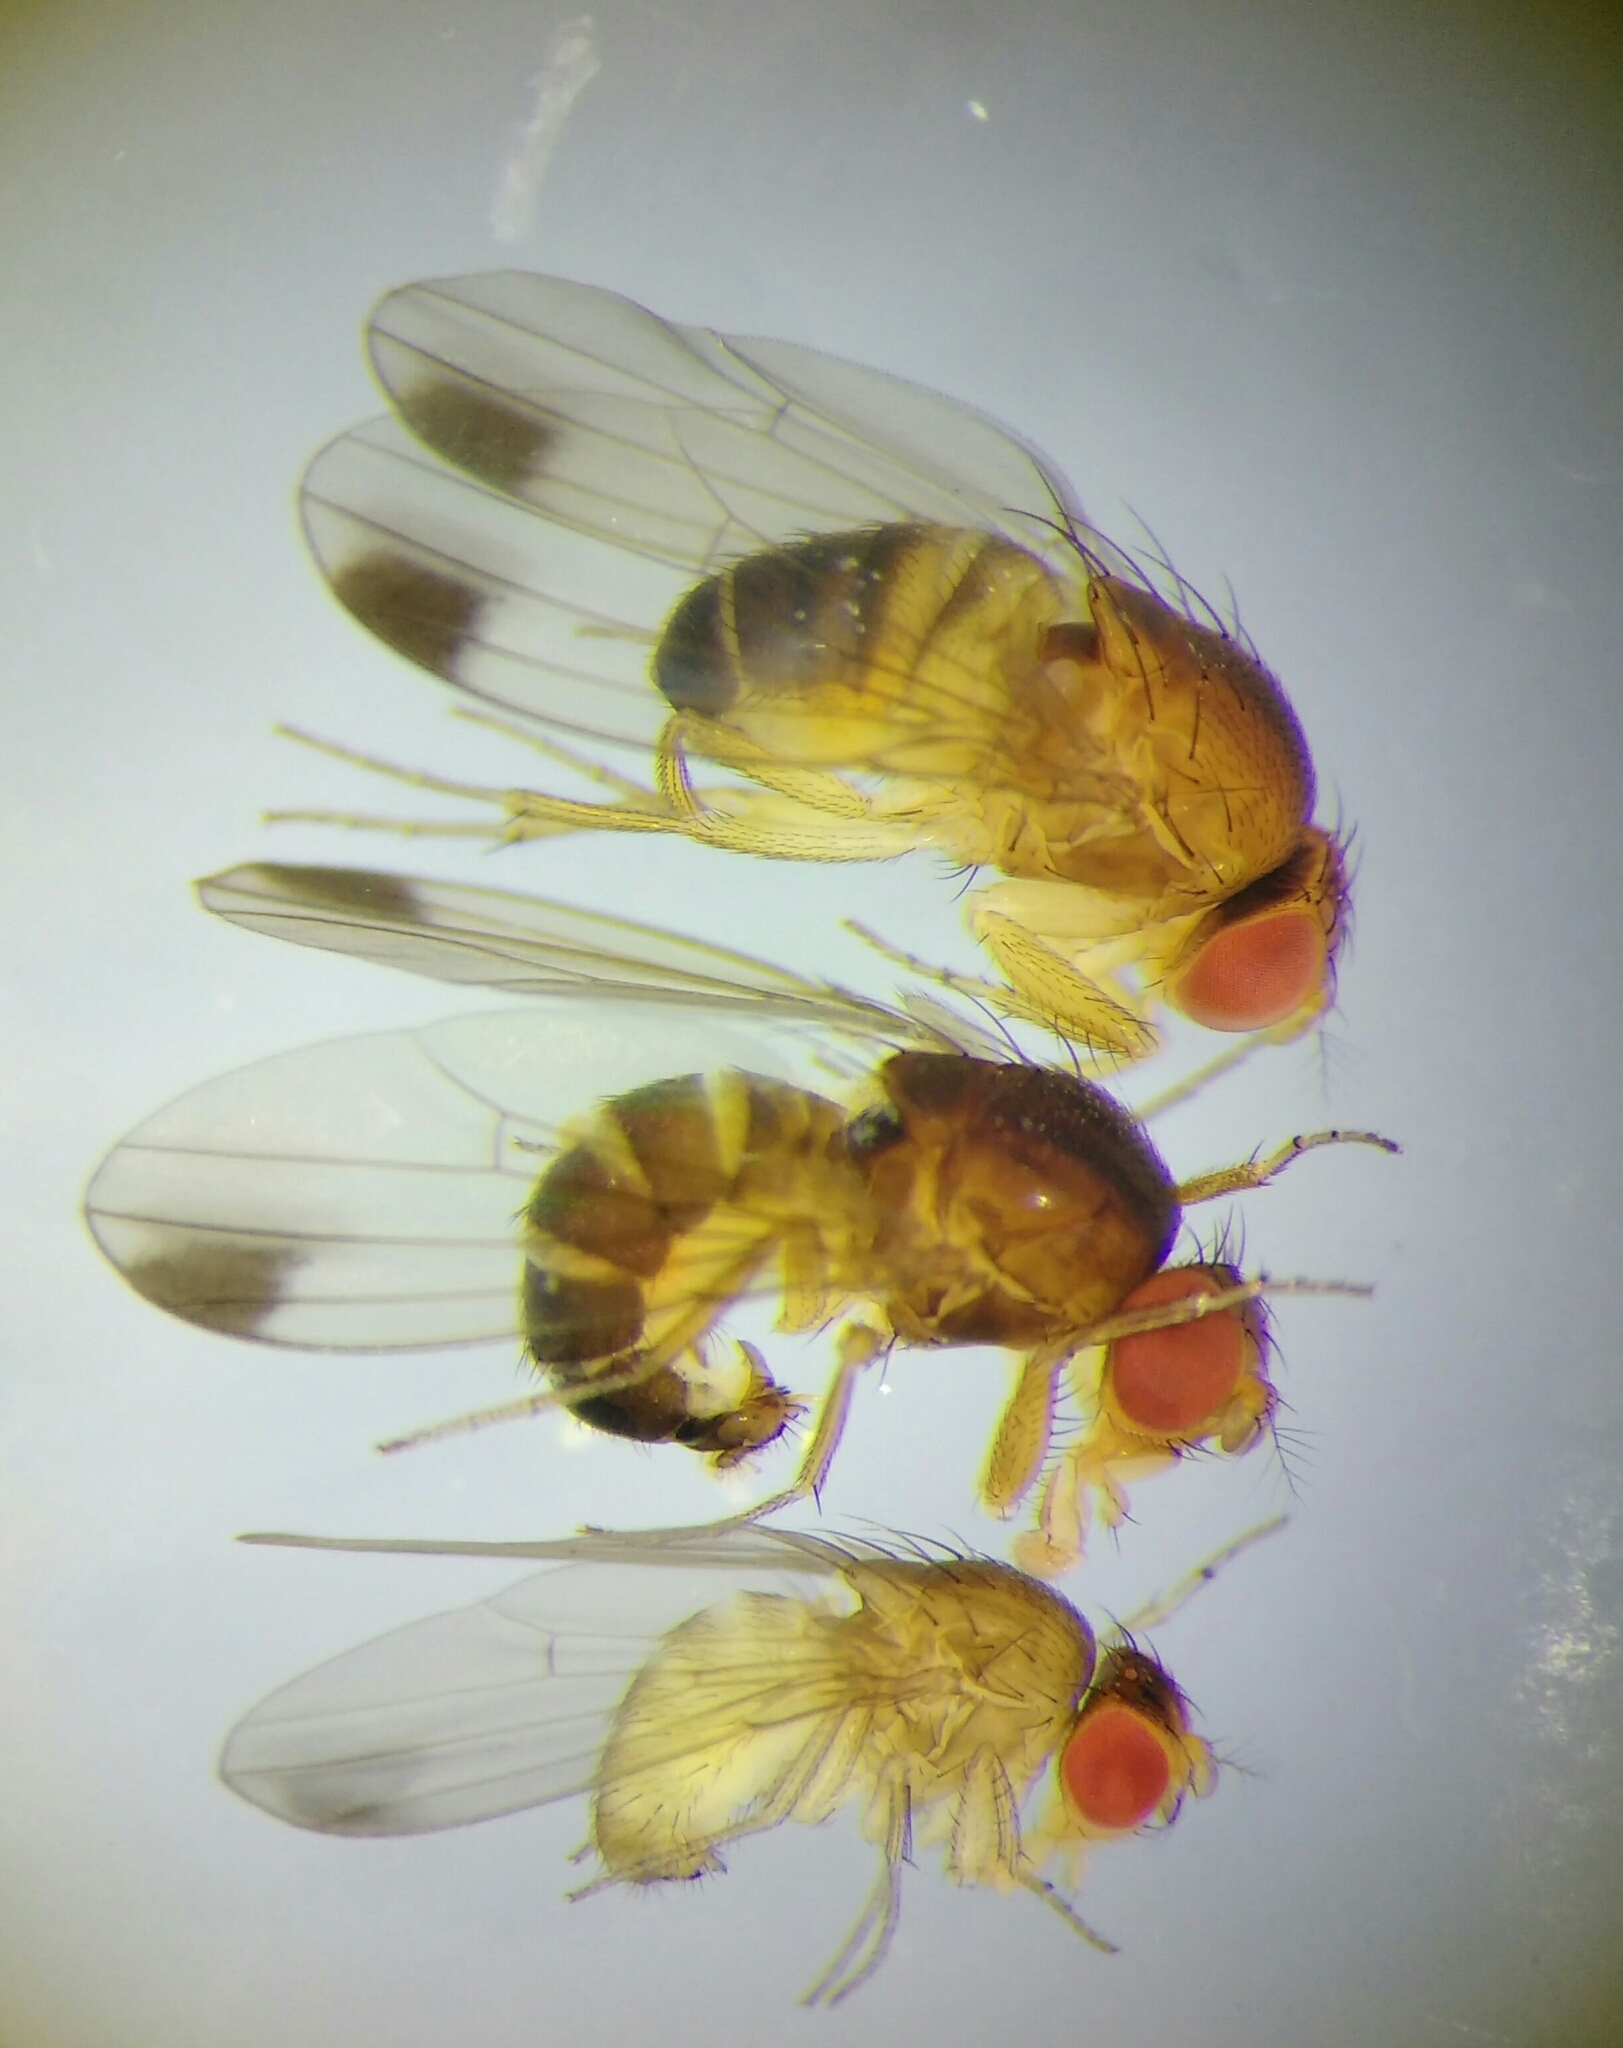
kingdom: Animalia
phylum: Arthropoda
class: Insecta
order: Diptera
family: Drosophilidae
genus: Drosophila
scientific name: Drosophila suzukii
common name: Spotted-wing drosophila
